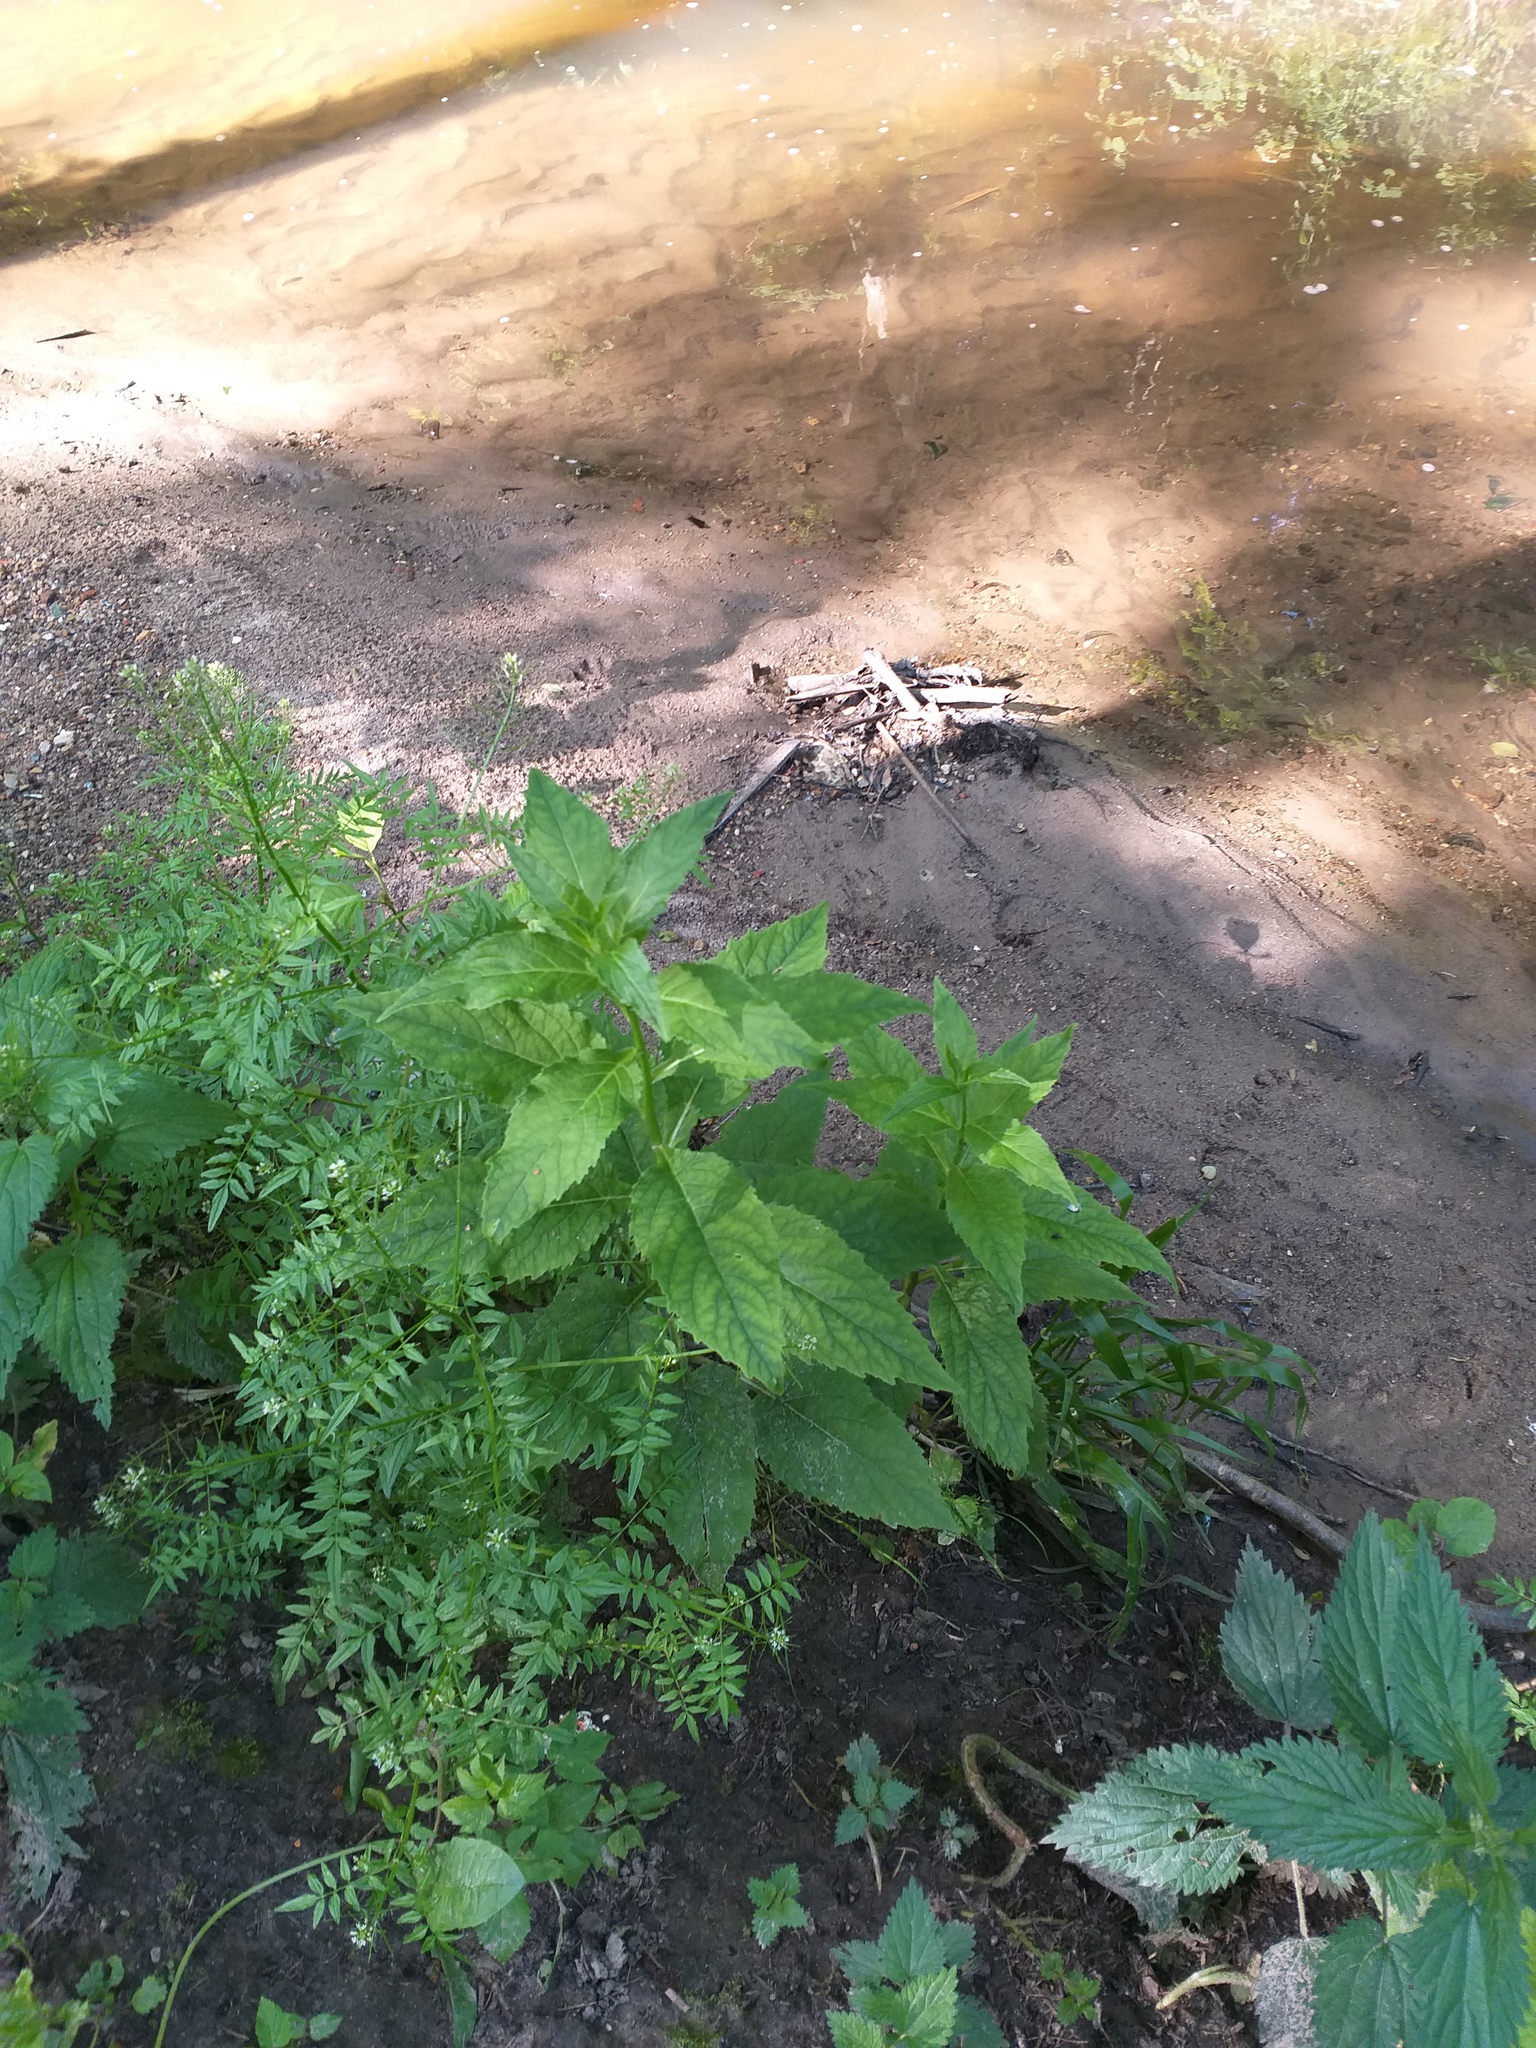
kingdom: Plantae
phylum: Tracheophyta
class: Magnoliopsida
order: Asterales
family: Campanulaceae
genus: Campanula
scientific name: Campanula latifolia
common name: Giant bellflower
